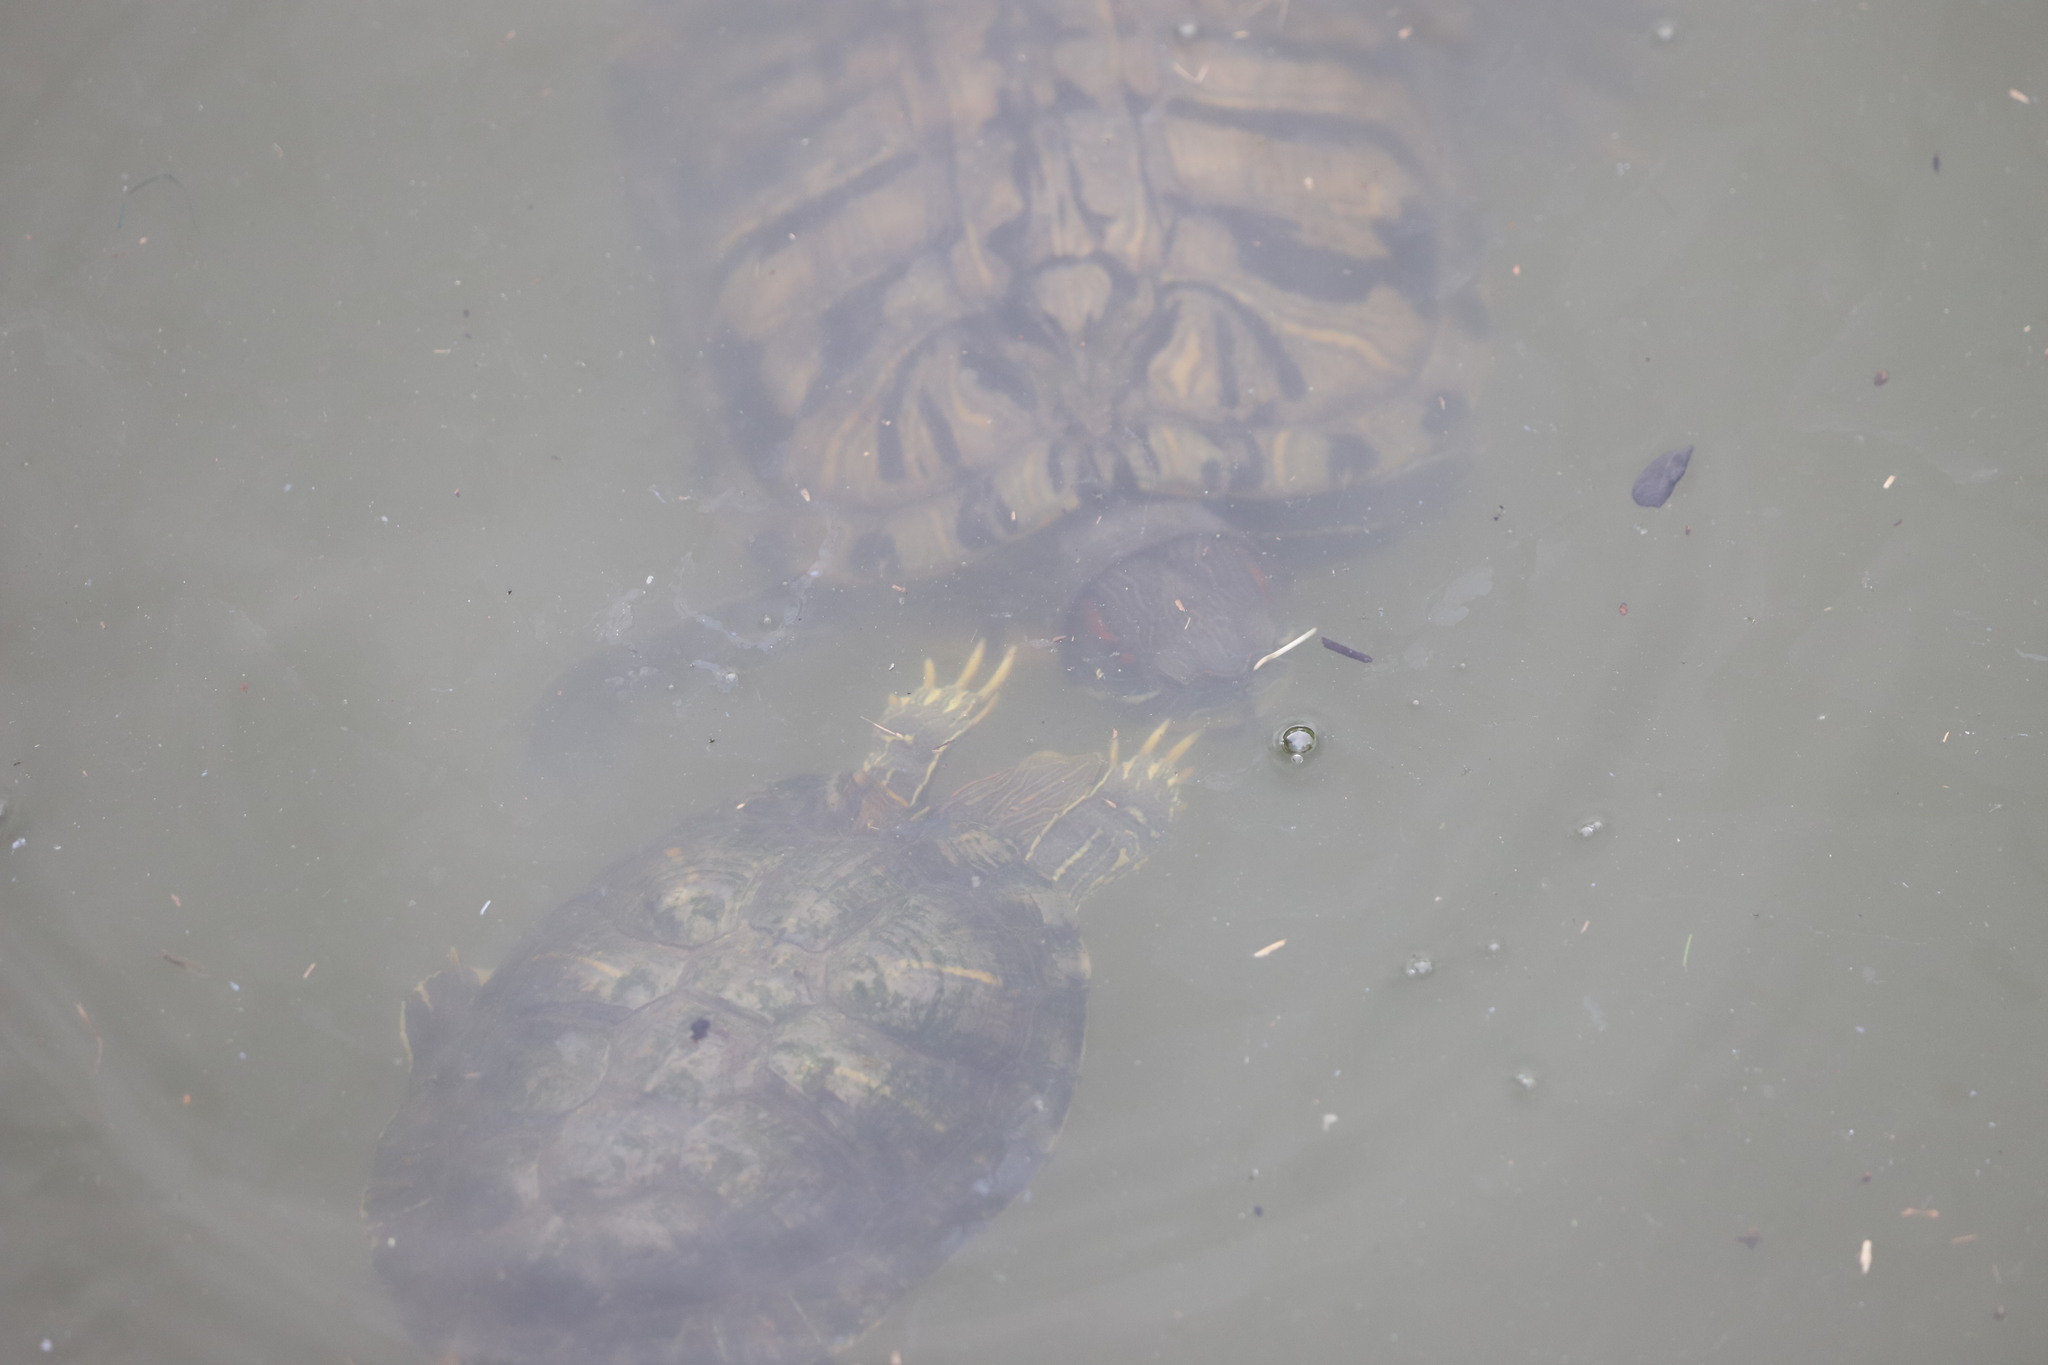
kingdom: Animalia
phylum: Chordata
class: Testudines
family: Emydidae
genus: Trachemys
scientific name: Trachemys scripta
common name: Slider
